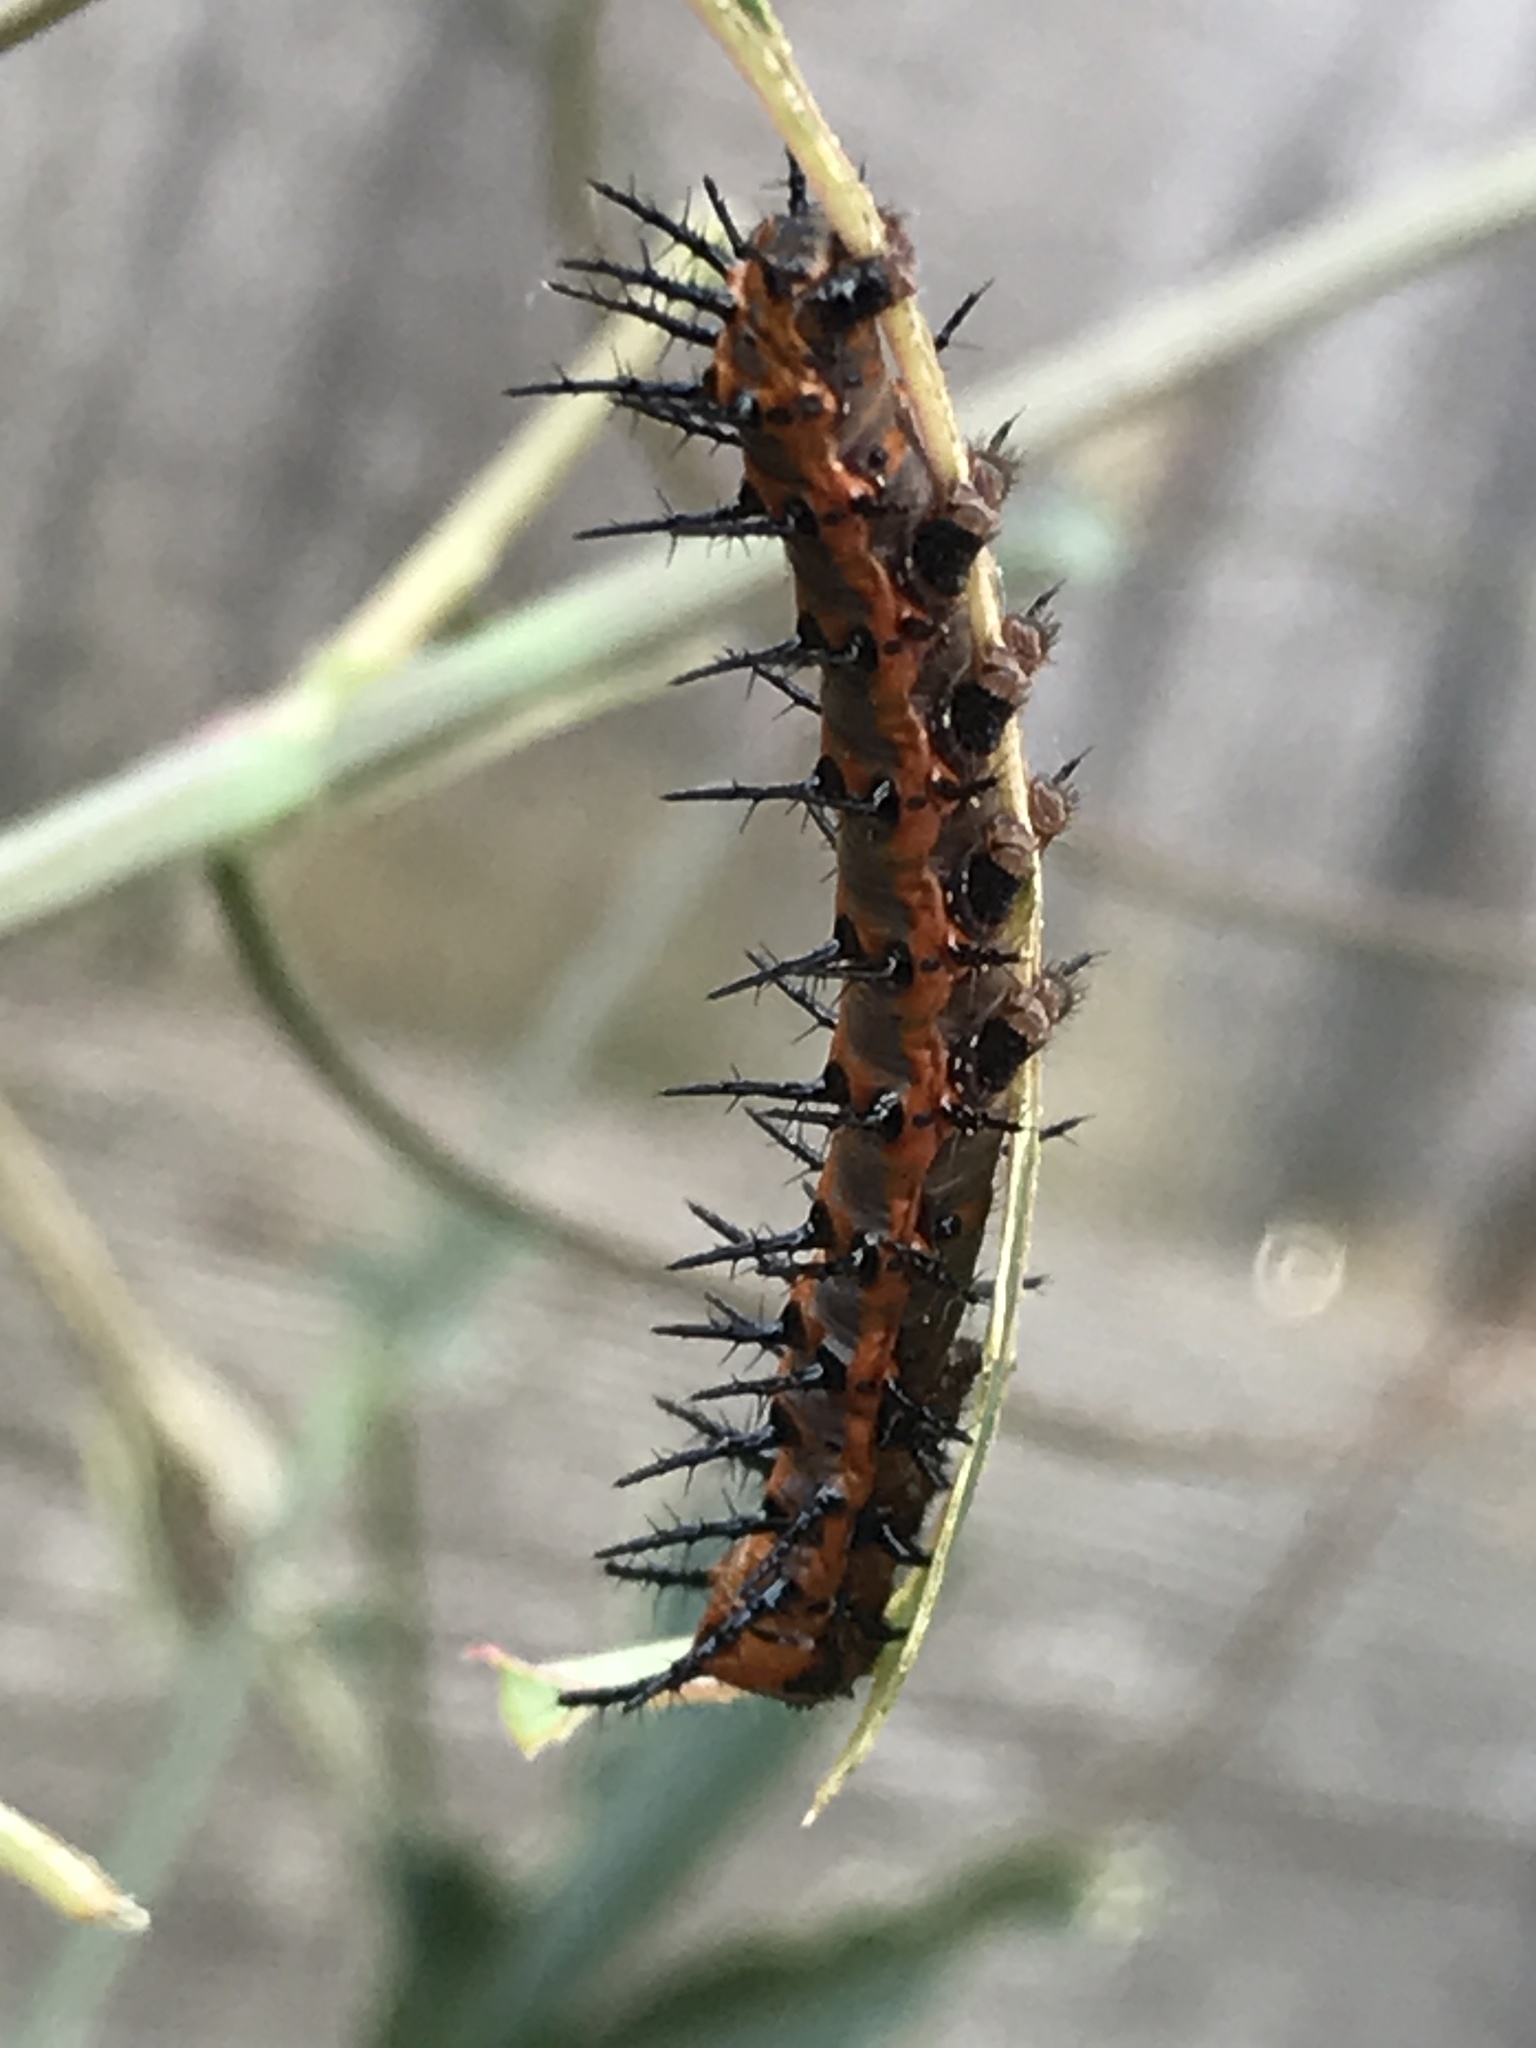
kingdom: Animalia
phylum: Arthropoda
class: Insecta
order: Lepidoptera
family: Nymphalidae
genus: Dione
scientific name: Dione vanillae
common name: Gulf fritillary
